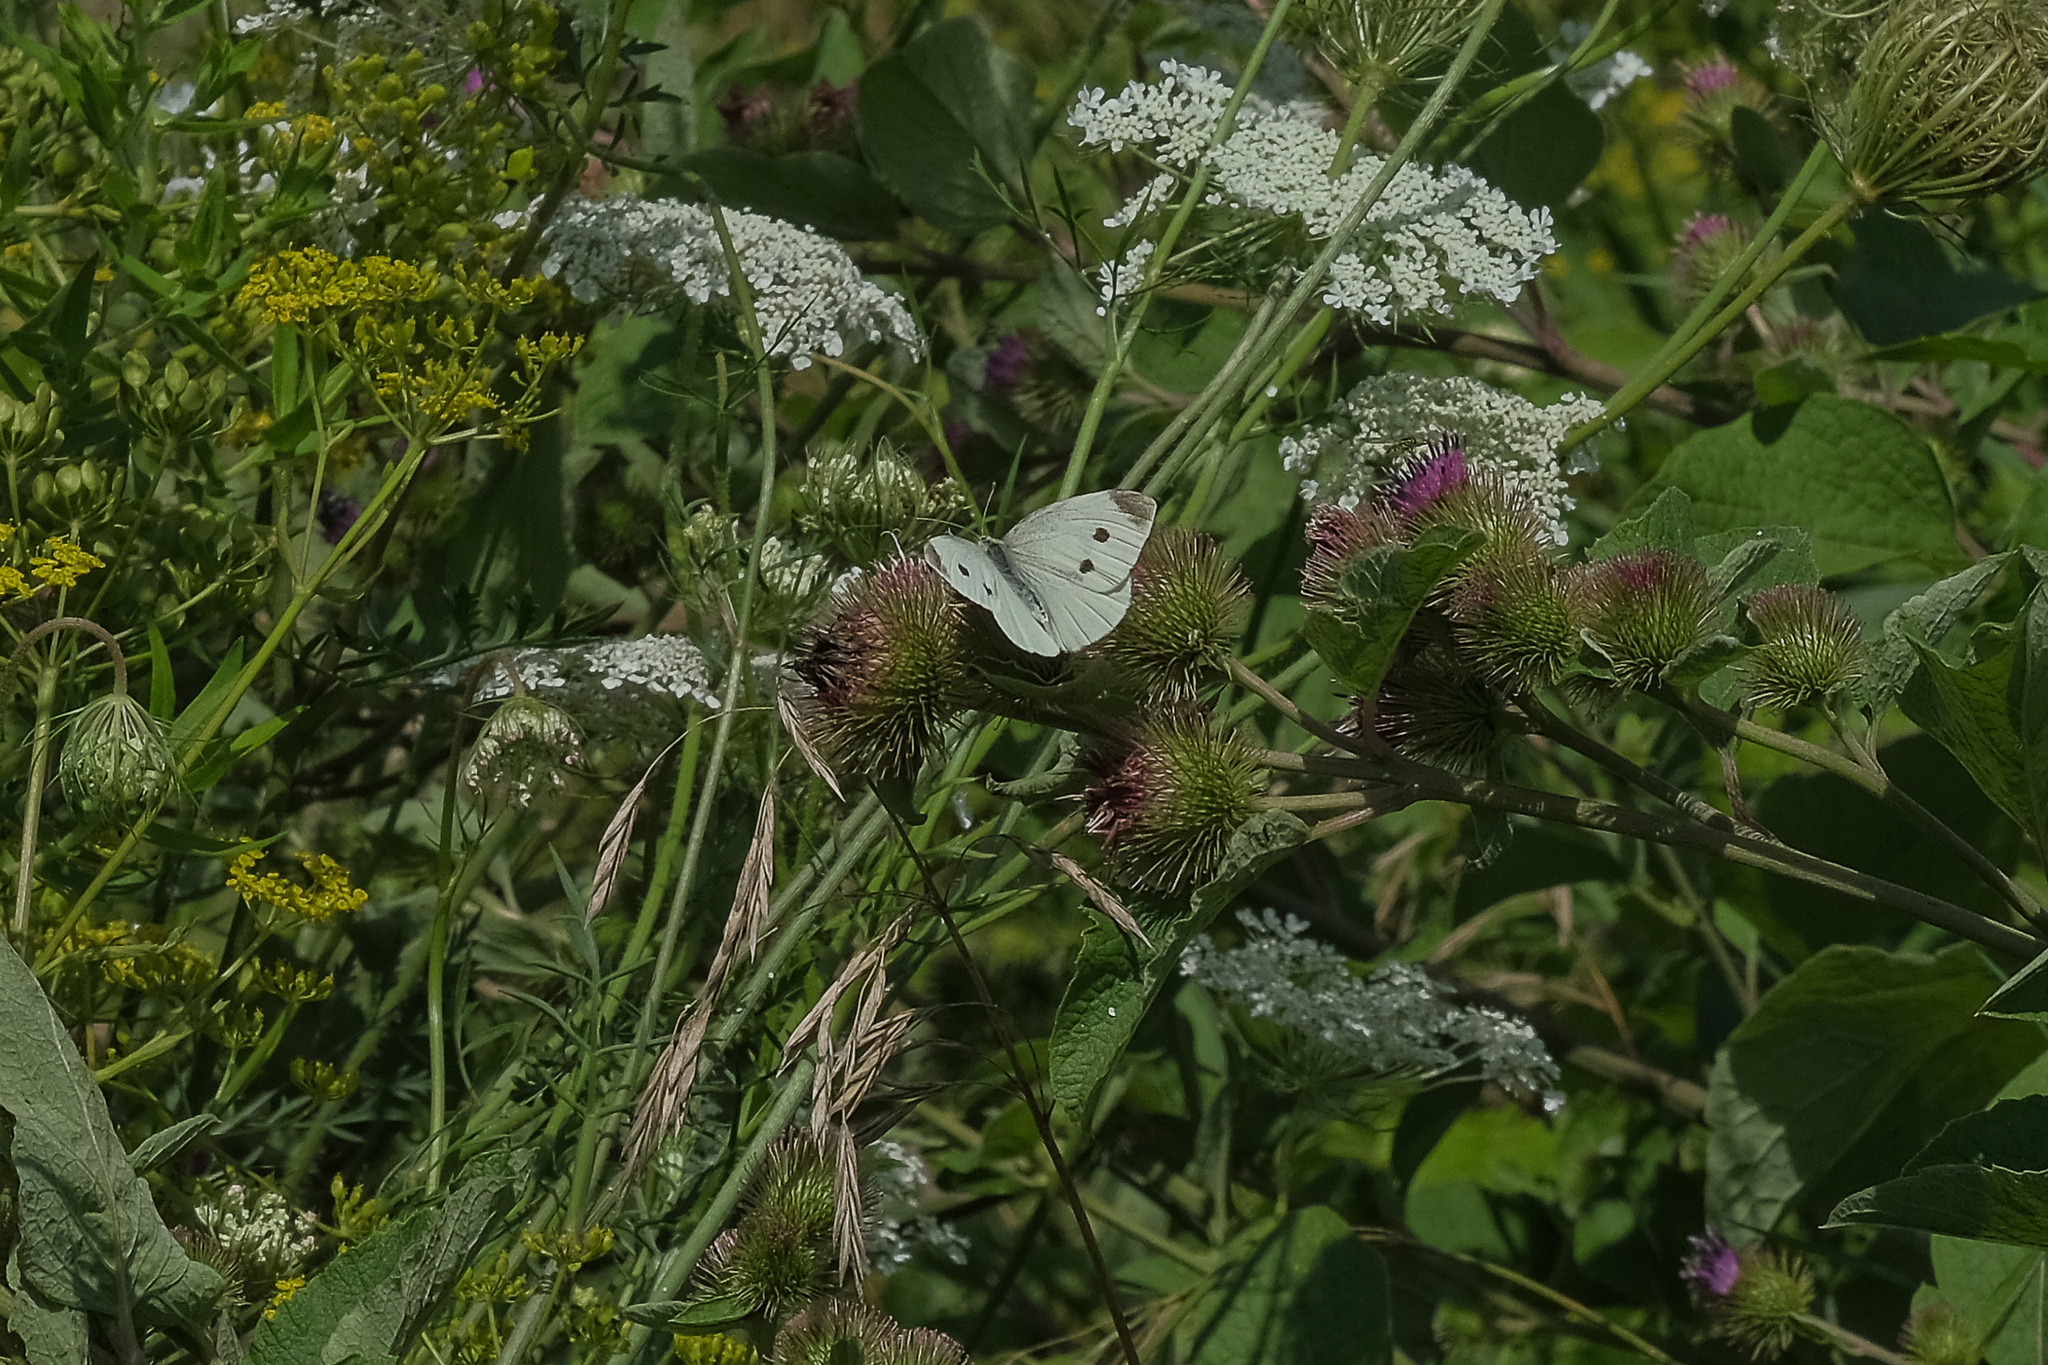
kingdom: Animalia
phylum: Arthropoda
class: Insecta
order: Lepidoptera
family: Pieridae
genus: Pieris
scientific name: Pieris rapae
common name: Small white
